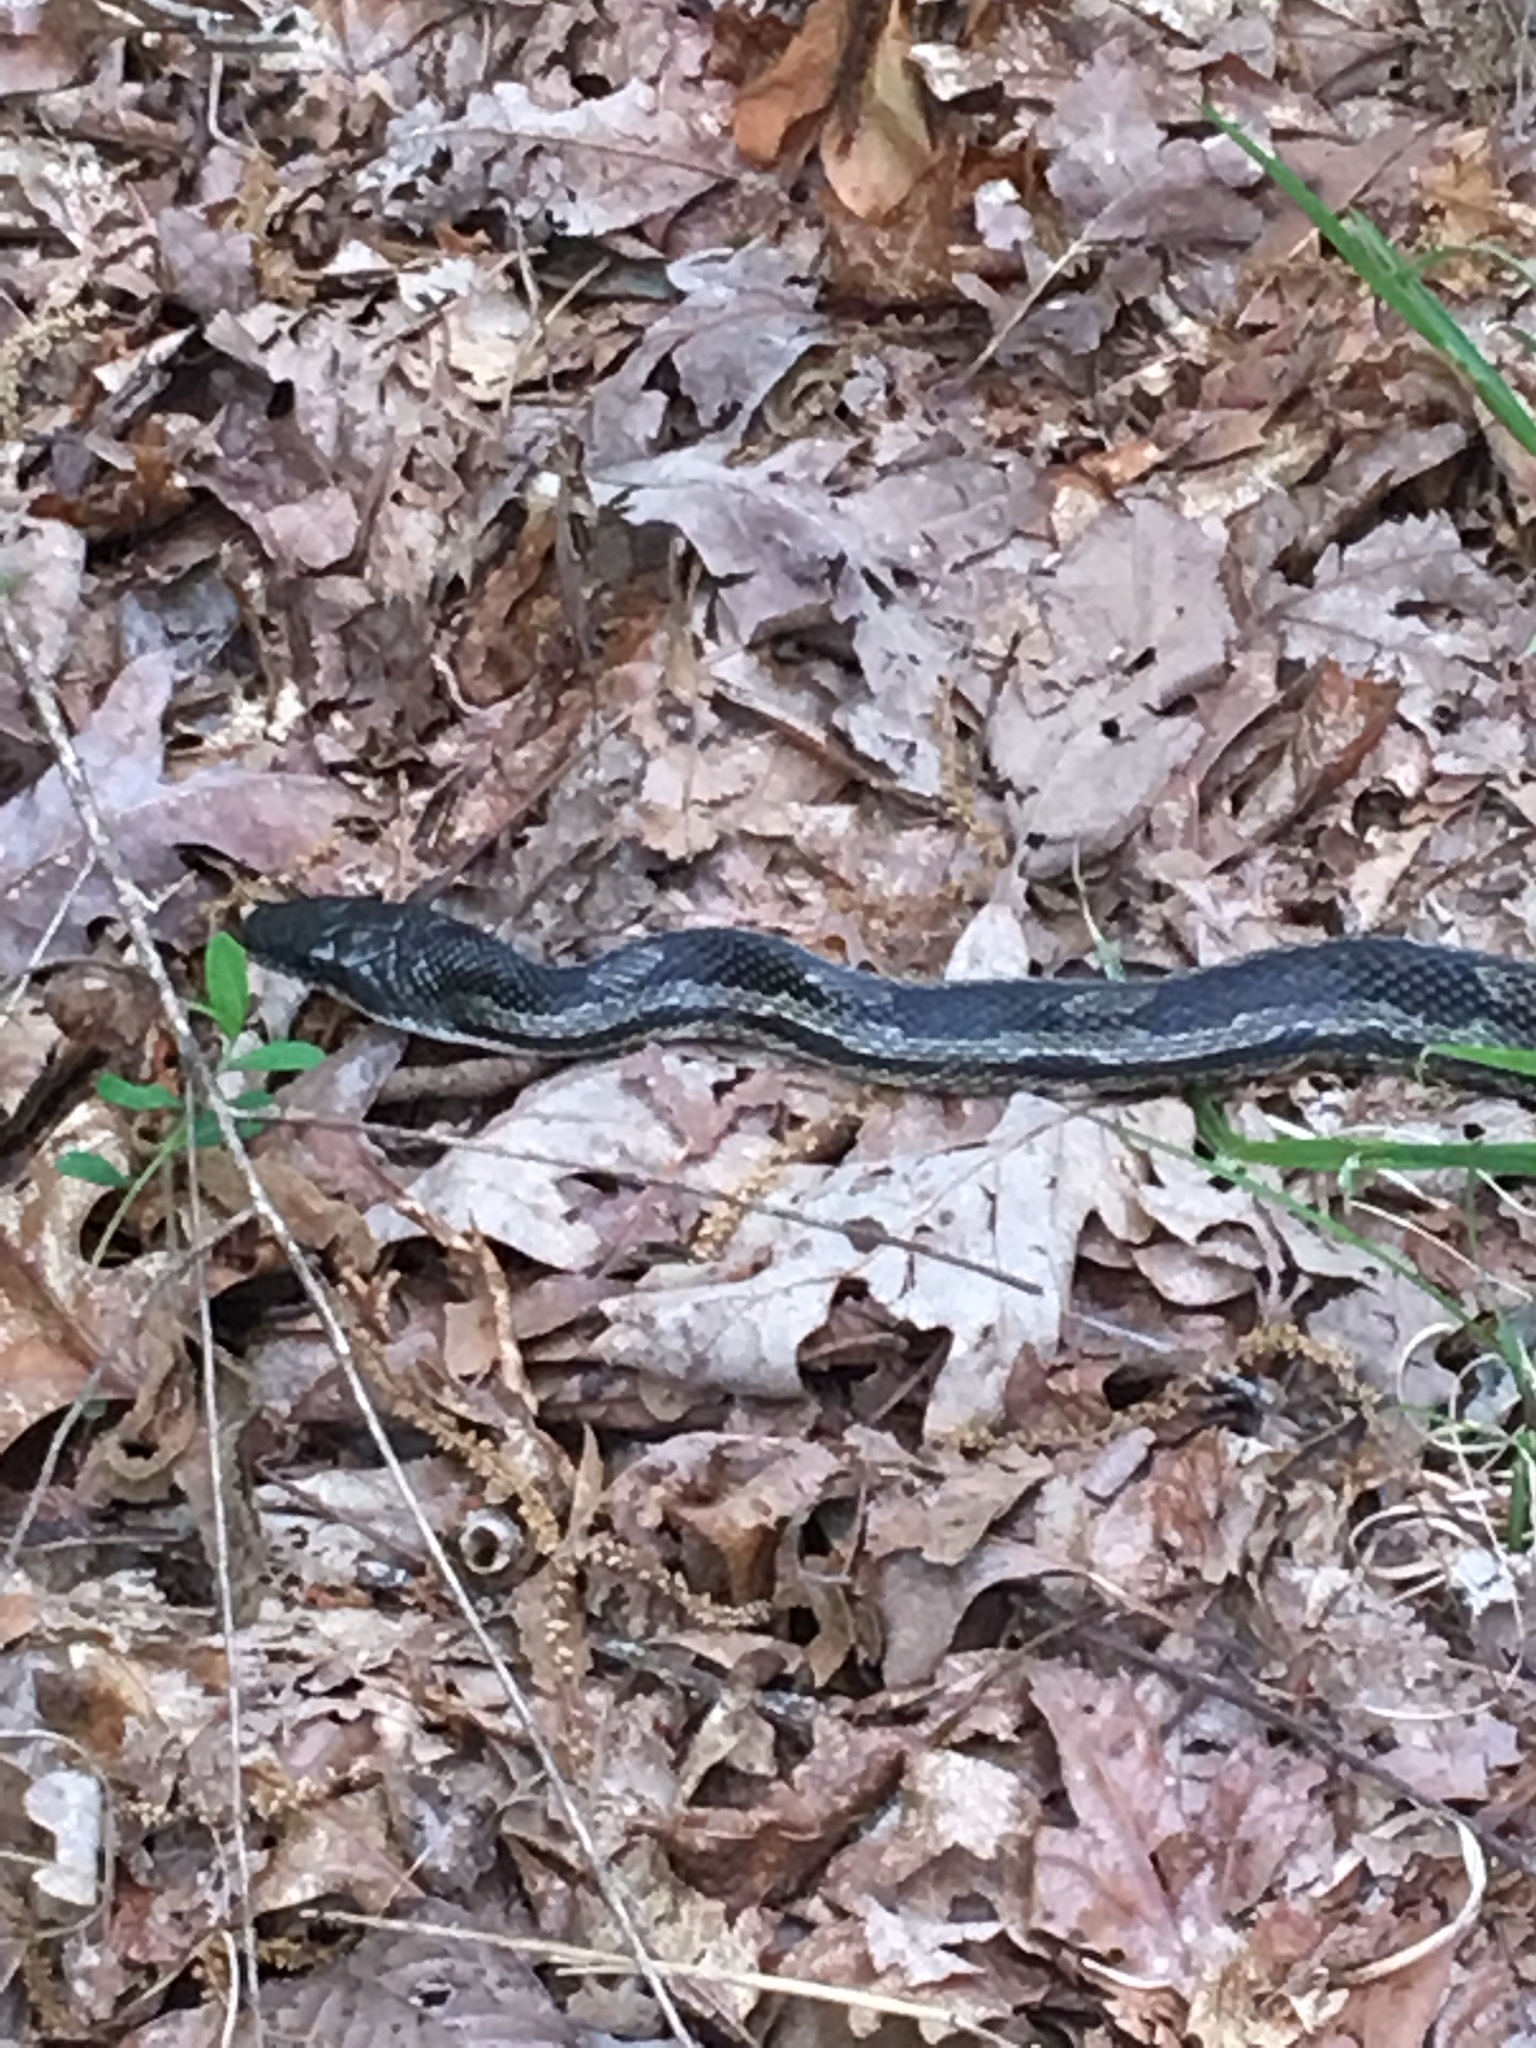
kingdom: Animalia
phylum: Chordata
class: Squamata
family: Colubridae
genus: Pantherophis
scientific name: Pantherophis spiloides
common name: Gray rat snake
